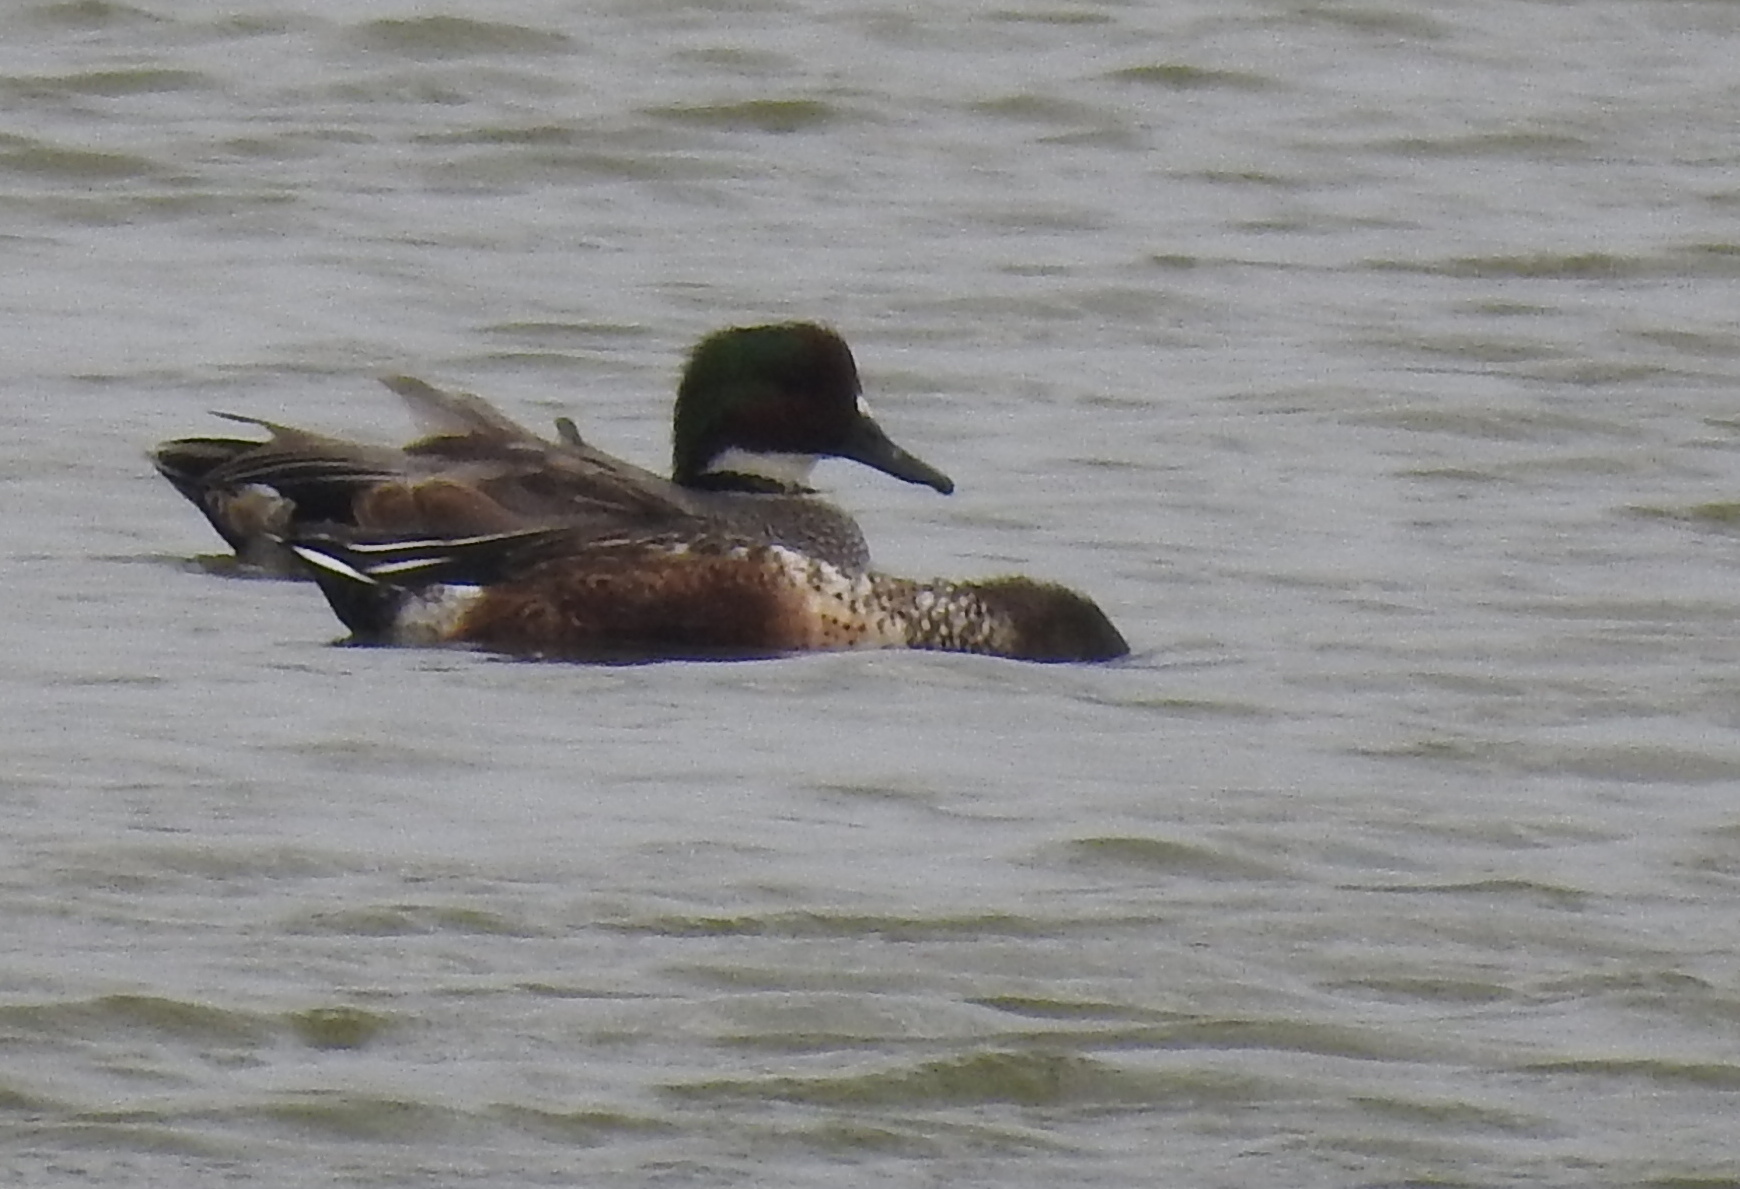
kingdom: Animalia
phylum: Chordata
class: Aves
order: Anseriformes
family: Anatidae
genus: Mareca
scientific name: Mareca falcata
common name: Falcated duck
